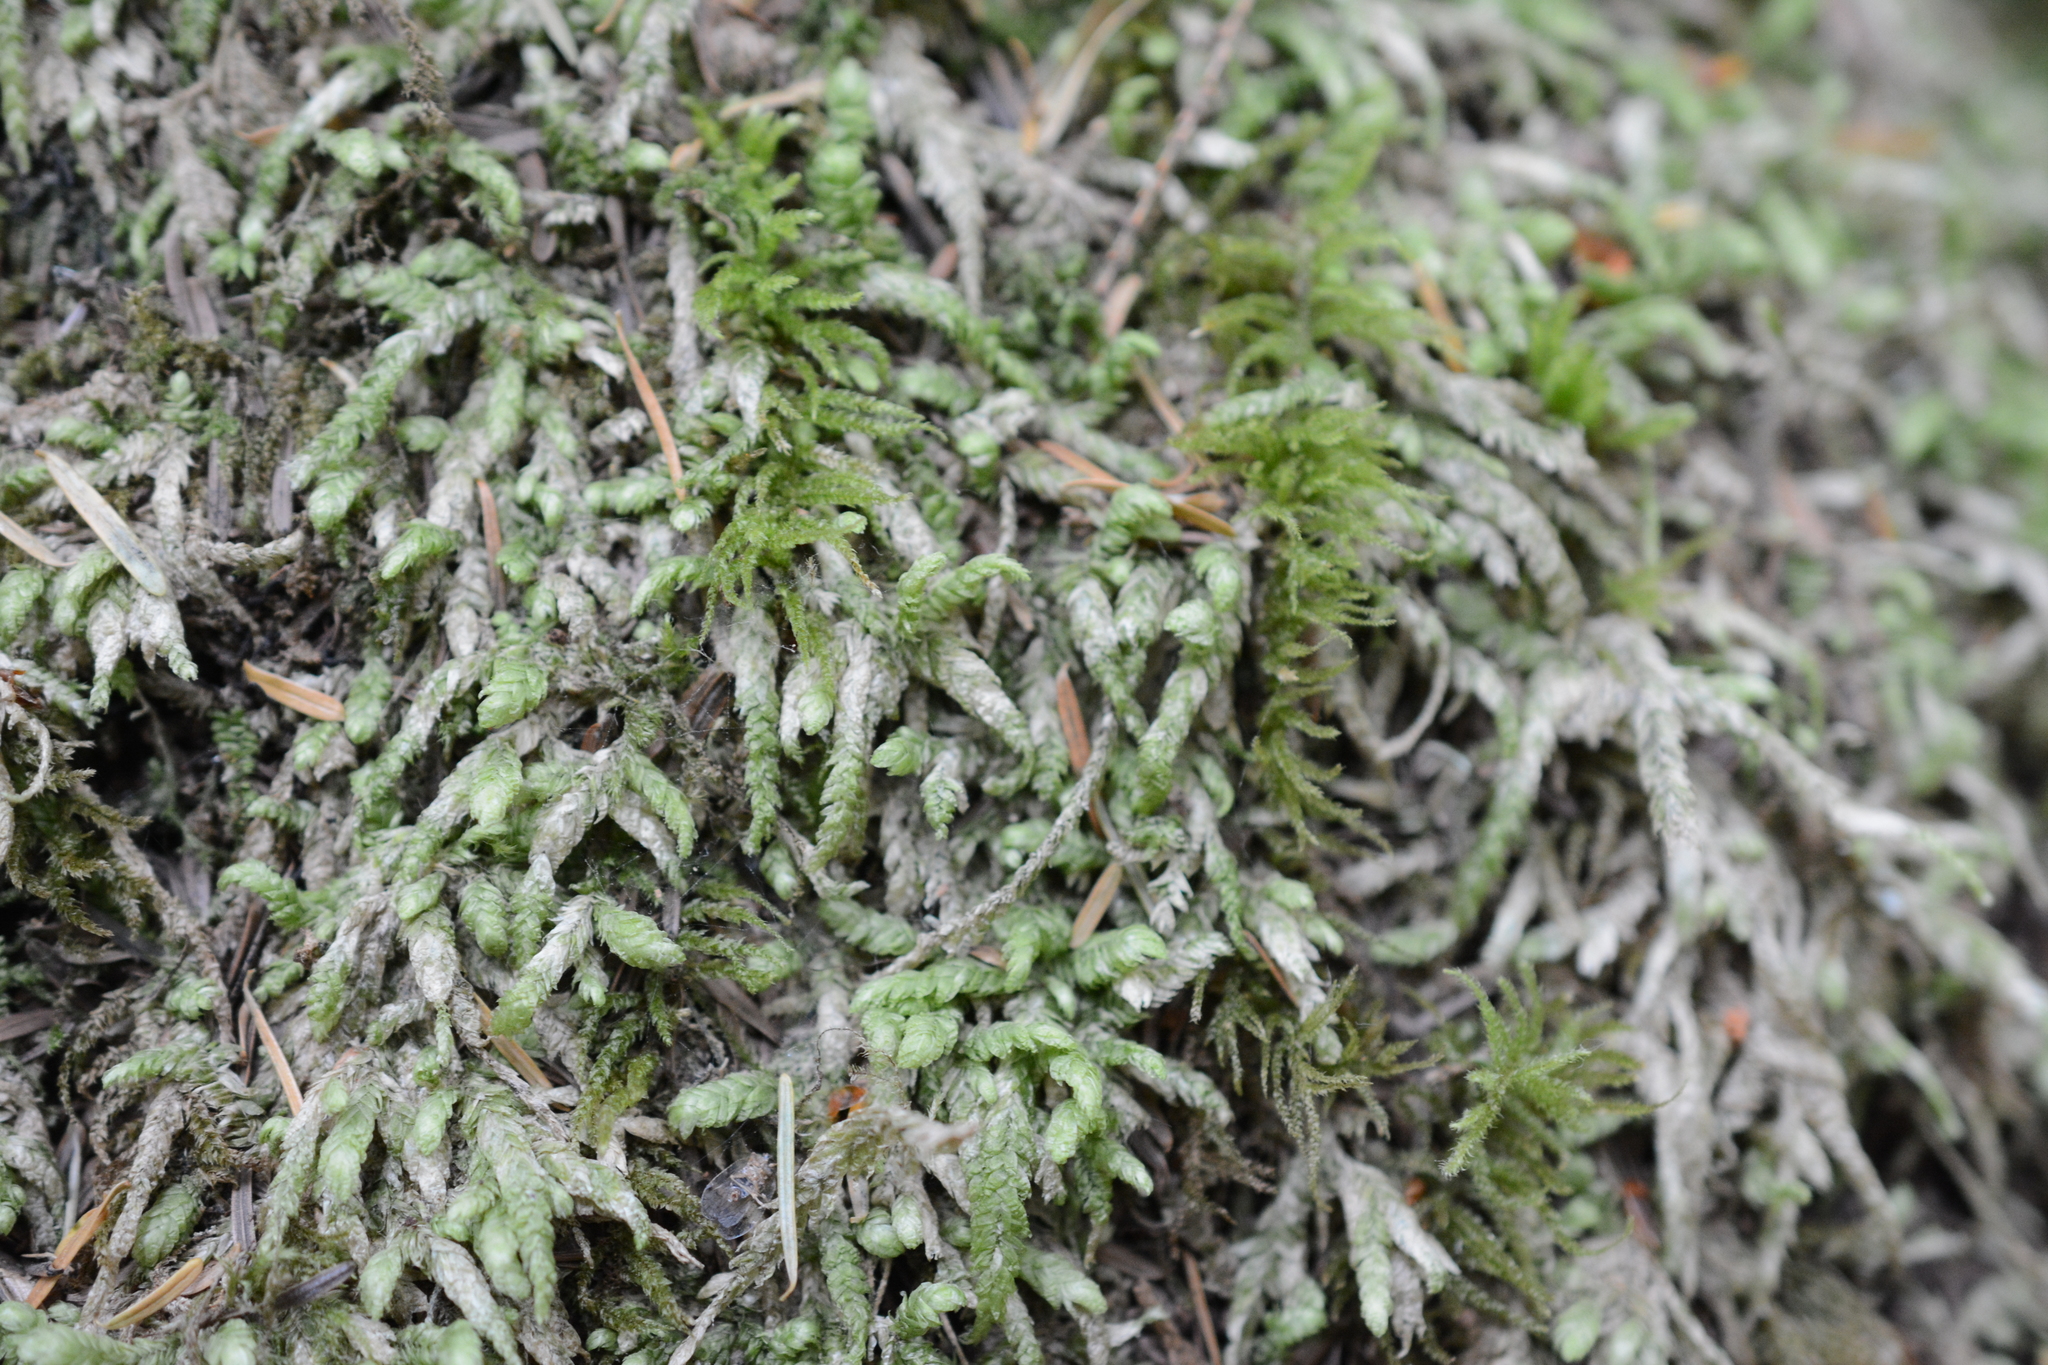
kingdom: Plantae
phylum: Bryophyta
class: Bryopsida
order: Hypnales
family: Plagiotheciaceae
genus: Plagiothecium
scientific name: Plagiothecium undulatum
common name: Waved silk-moss
